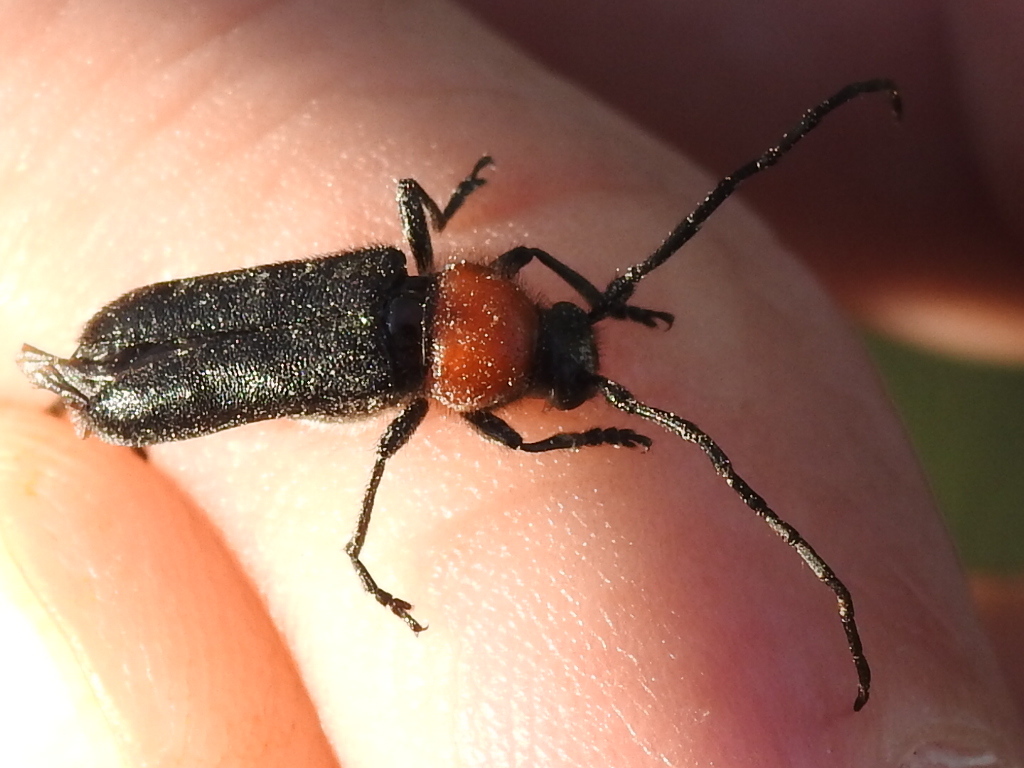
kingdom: Animalia
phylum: Arthropoda
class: Insecta
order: Coleoptera
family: Cerambycidae
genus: Batyle
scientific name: Batyle ignicollis
